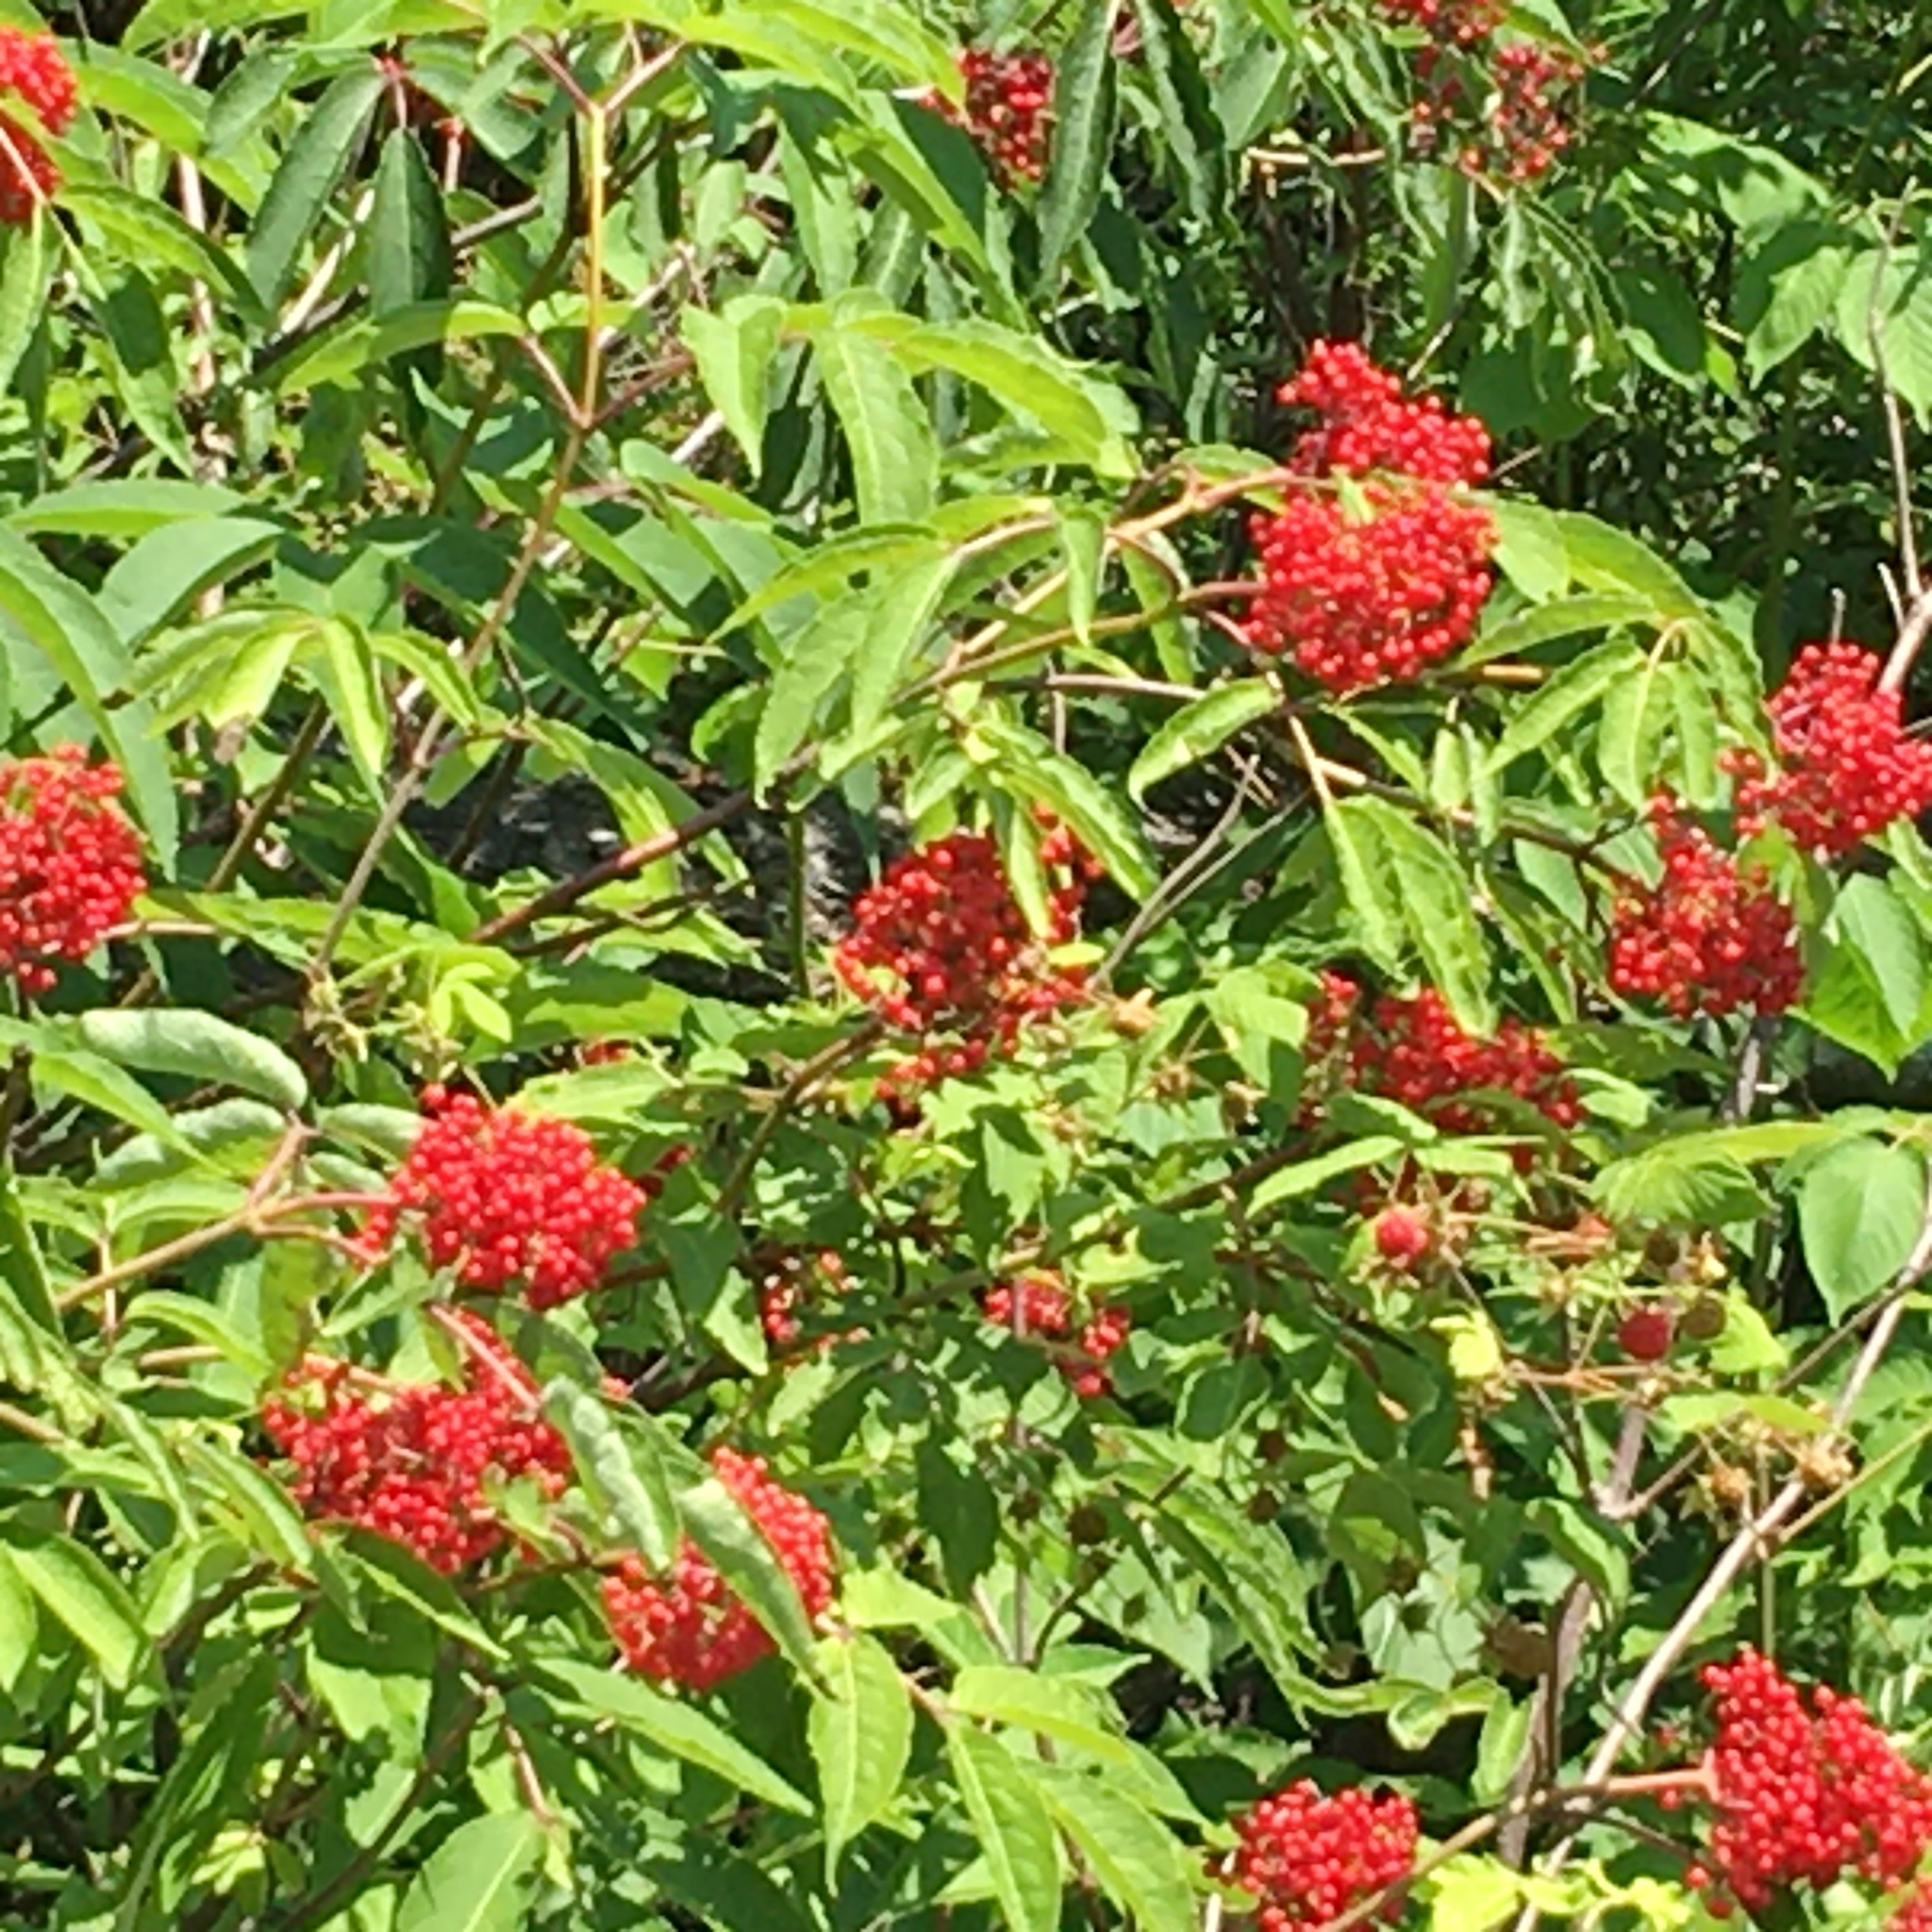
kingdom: Plantae
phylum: Tracheophyta
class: Magnoliopsida
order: Dipsacales
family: Viburnaceae
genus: Sambucus
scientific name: Sambucus racemosa
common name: Red-berried elder
